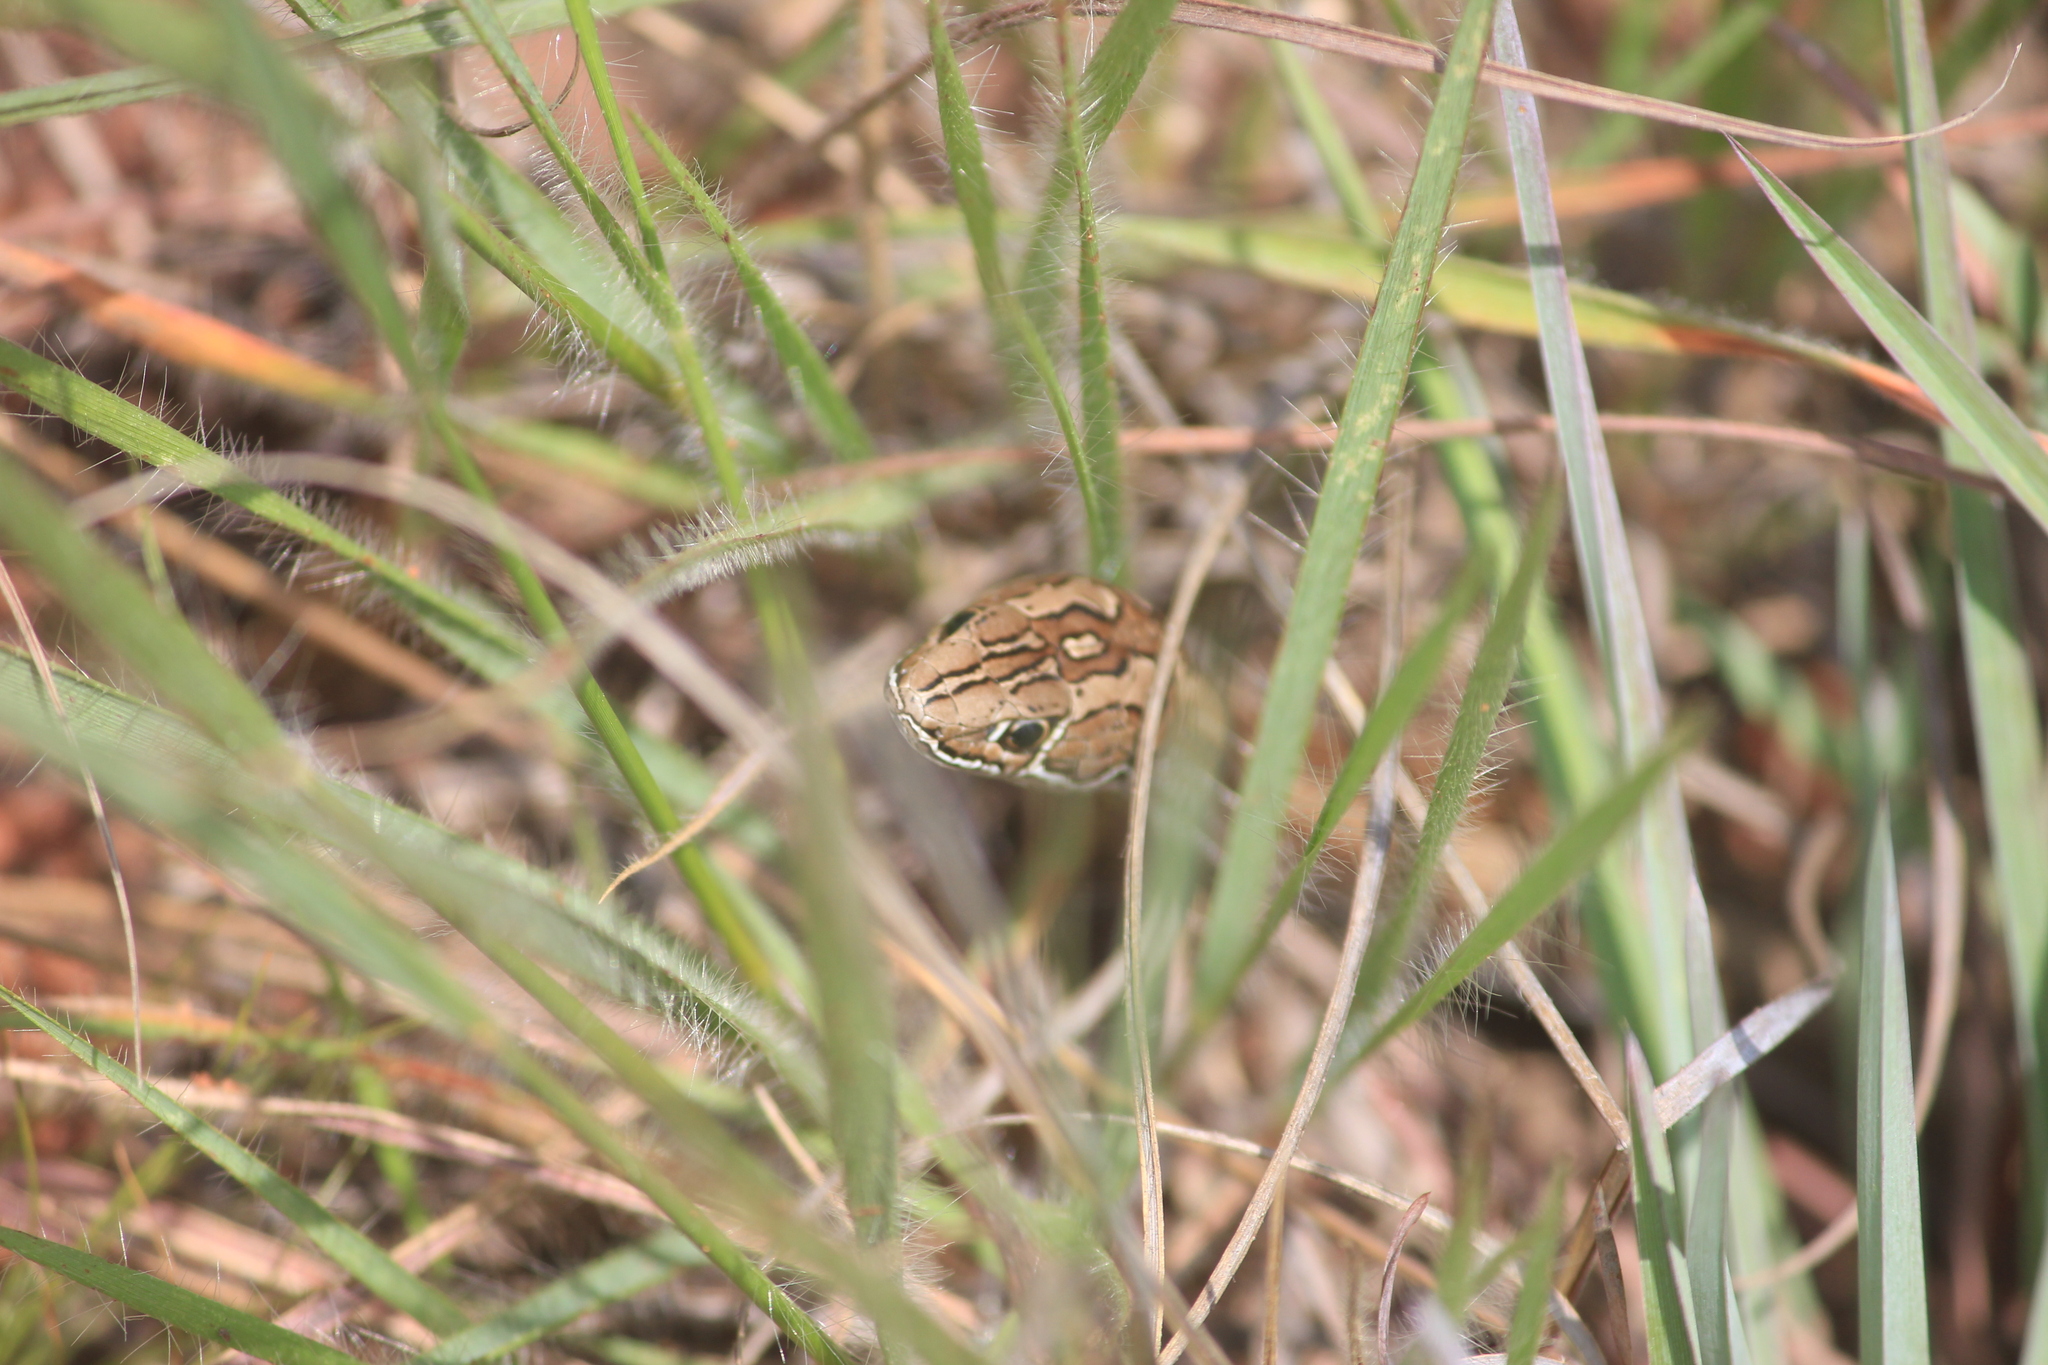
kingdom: Animalia
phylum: Chordata
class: Squamata
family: Psammophiidae
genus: Psammophis
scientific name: Psammophis crucifer
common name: Cross-marked grass snake
